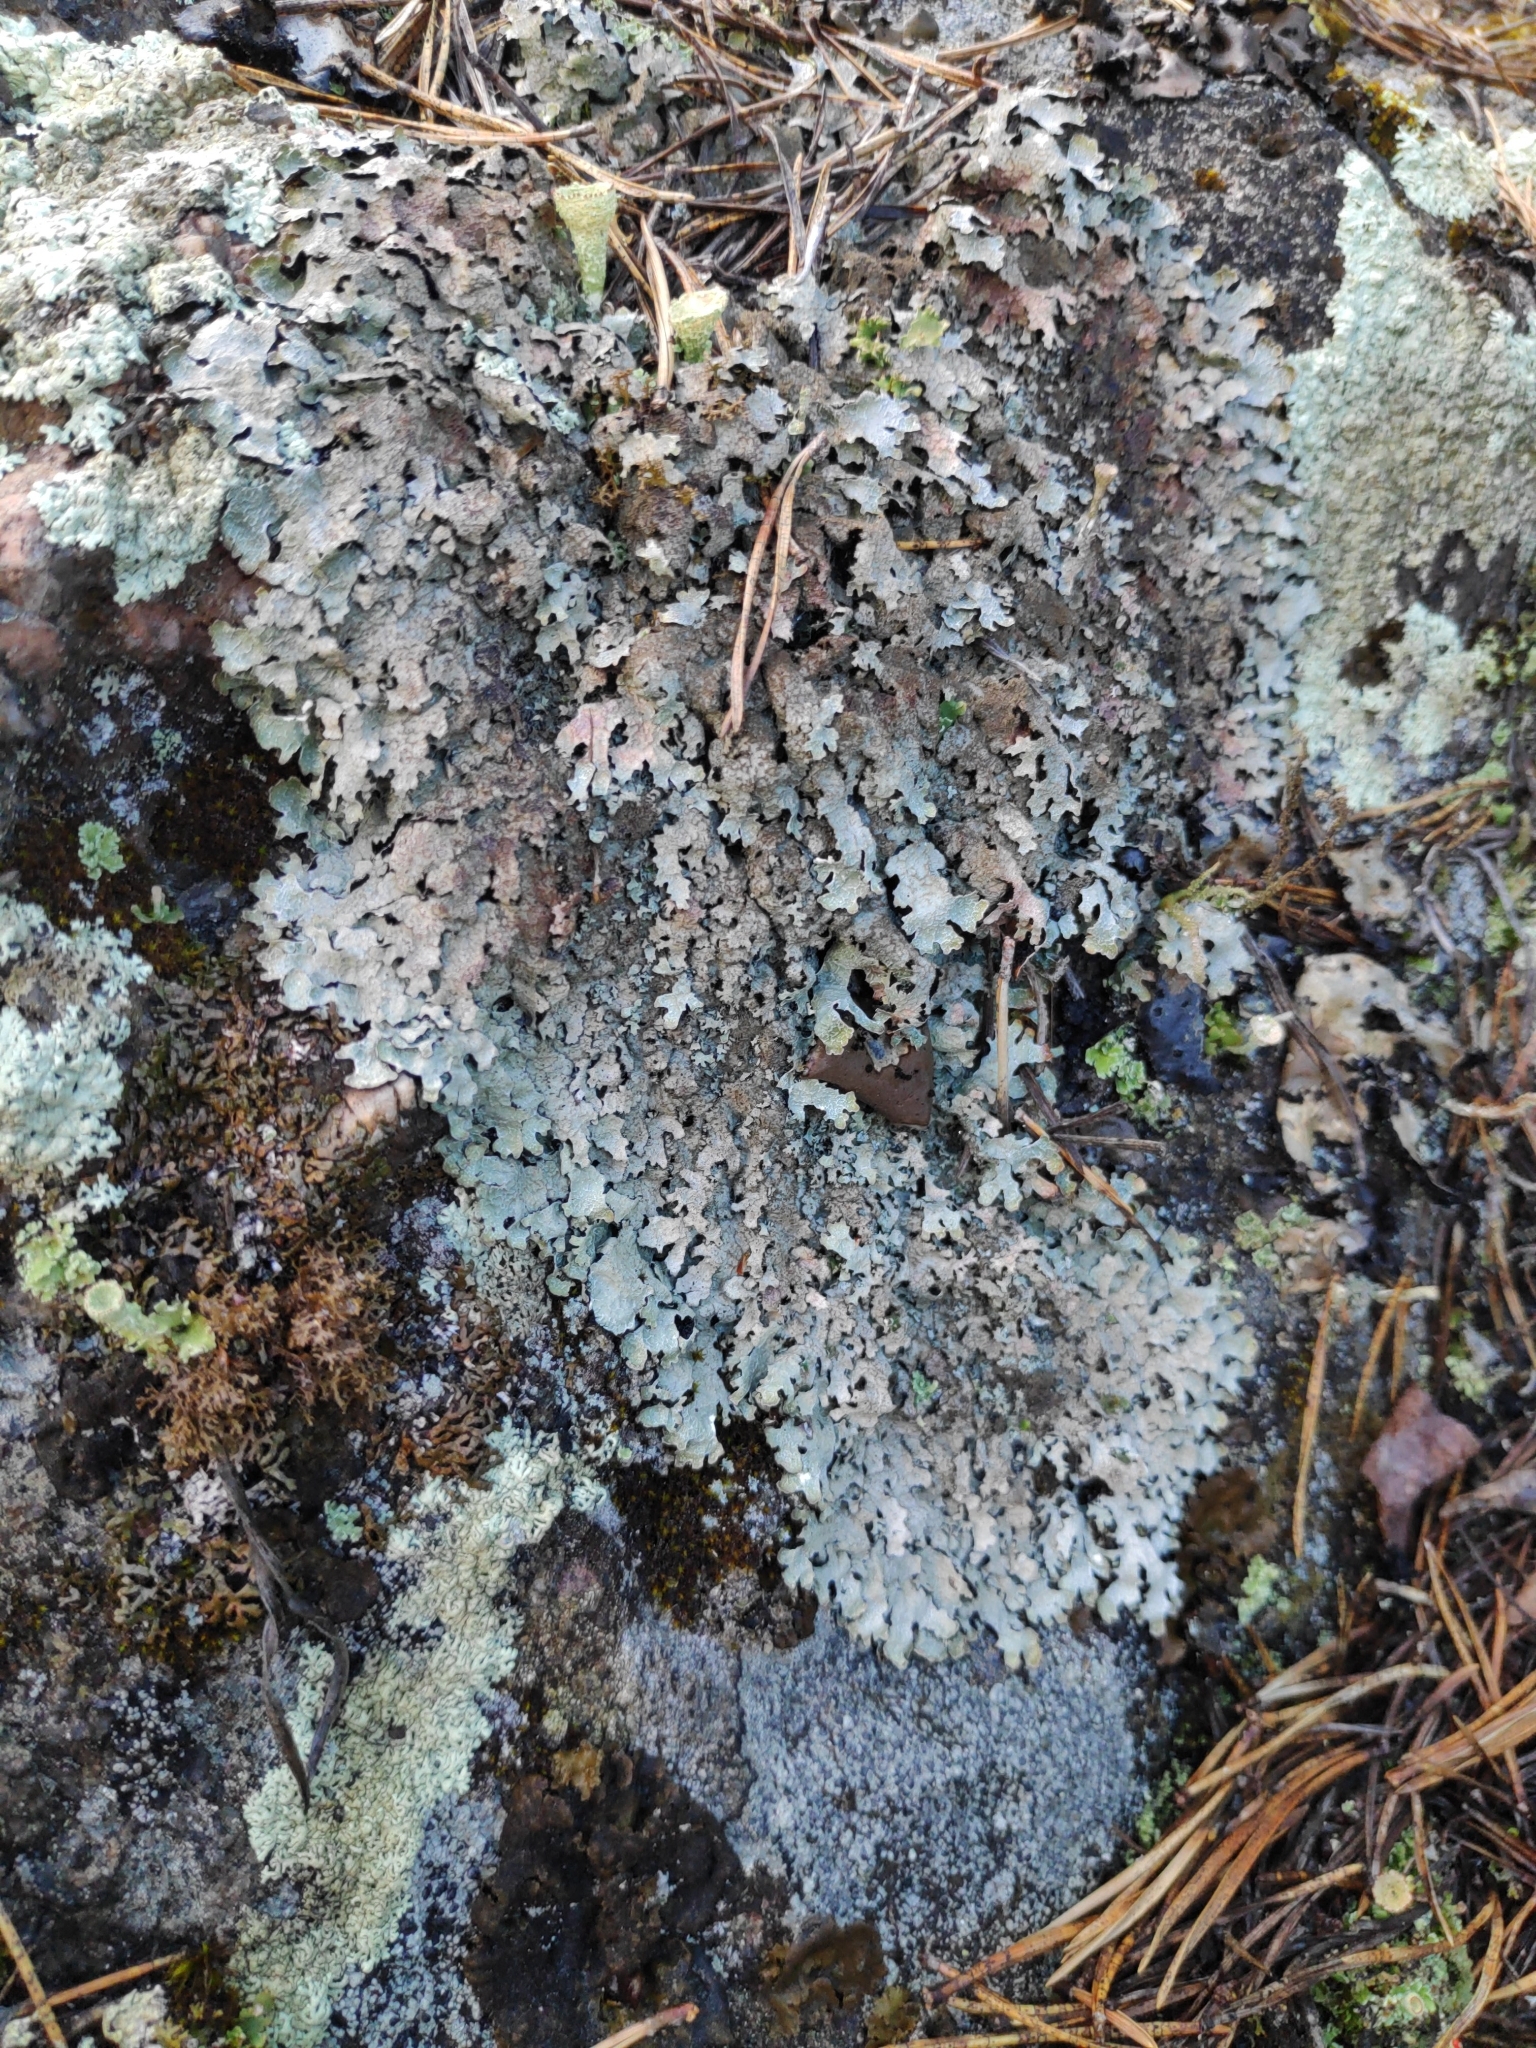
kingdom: Fungi
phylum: Ascomycota
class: Lecanoromycetes
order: Lecanorales
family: Parmeliaceae
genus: Parmelia
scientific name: Parmelia saxatilis
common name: Salted shield lichen
